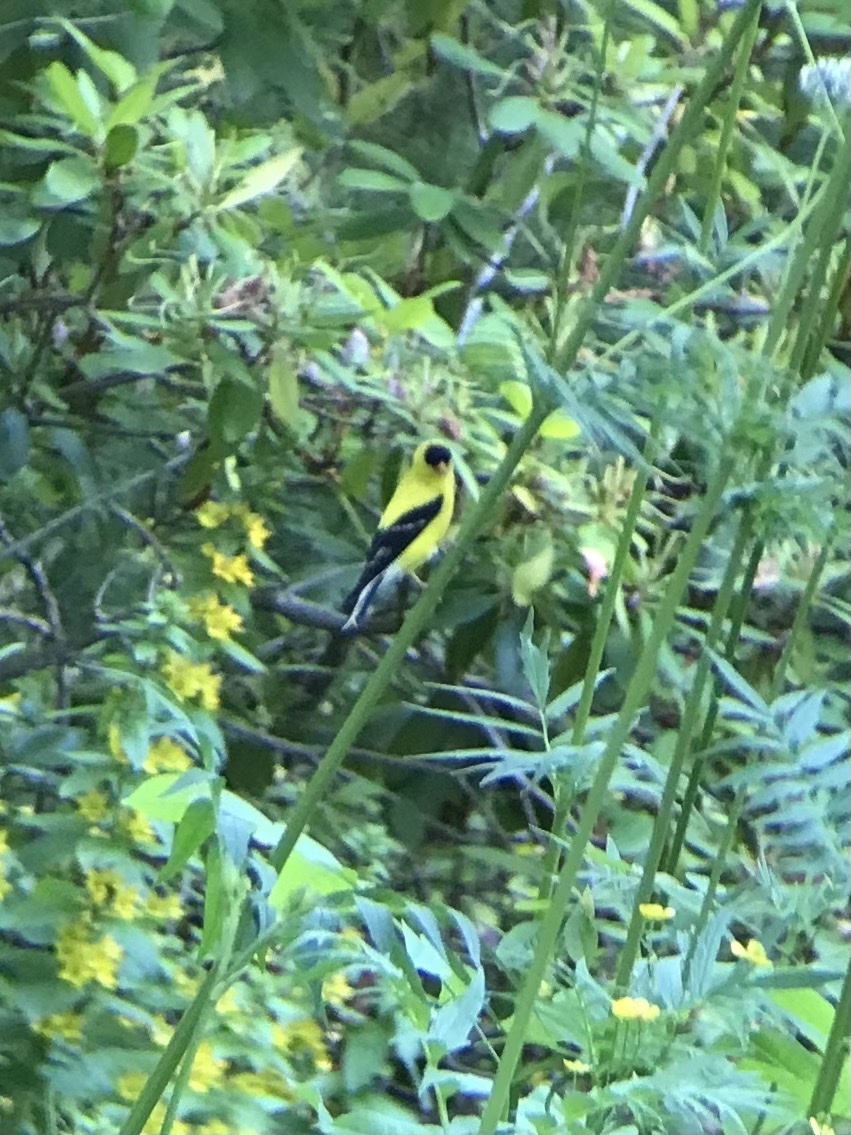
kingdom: Animalia
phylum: Chordata
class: Aves
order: Passeriformes
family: Fringillidae
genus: Spinus
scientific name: Spinus tristis
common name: American goldfinch
